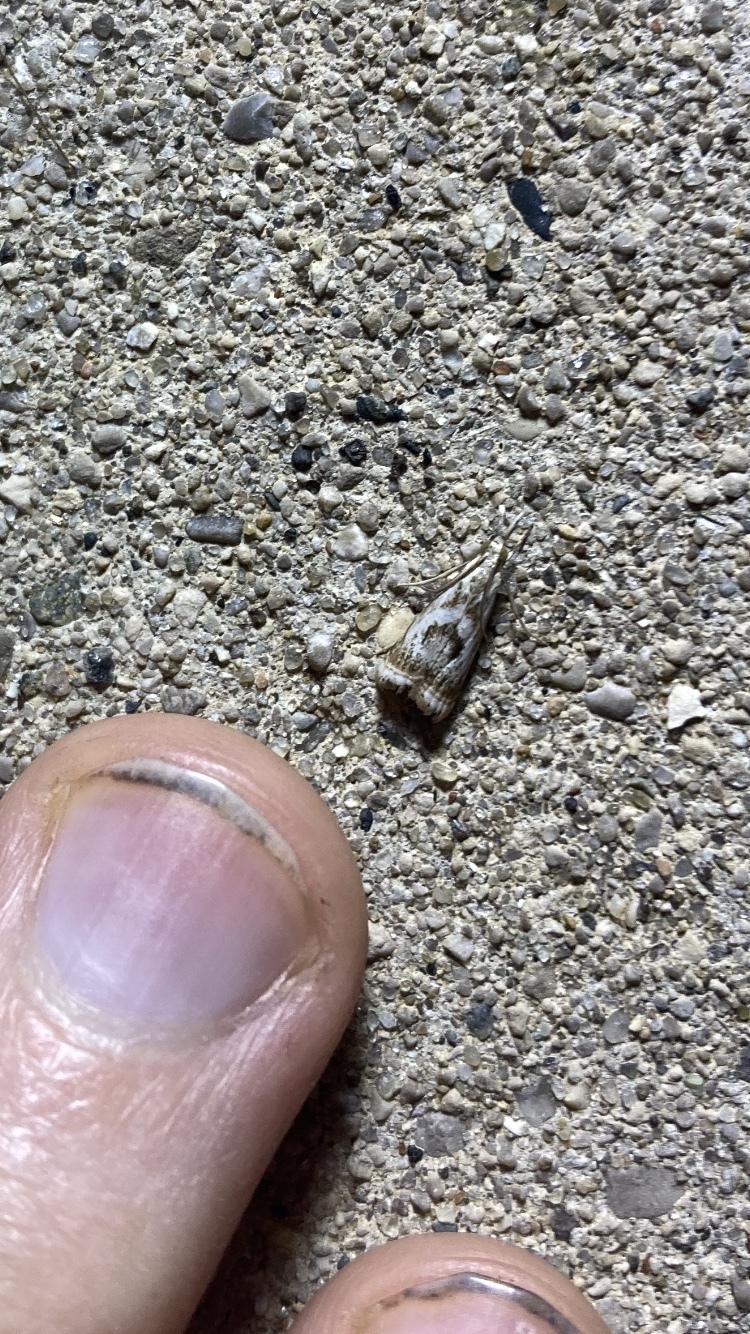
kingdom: Animalia
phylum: Arthropoda
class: Insecta
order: Lepidoptera
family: Crambidae
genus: Microcrambus
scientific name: Microcrambus elegans
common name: Elegant grass-veneer
